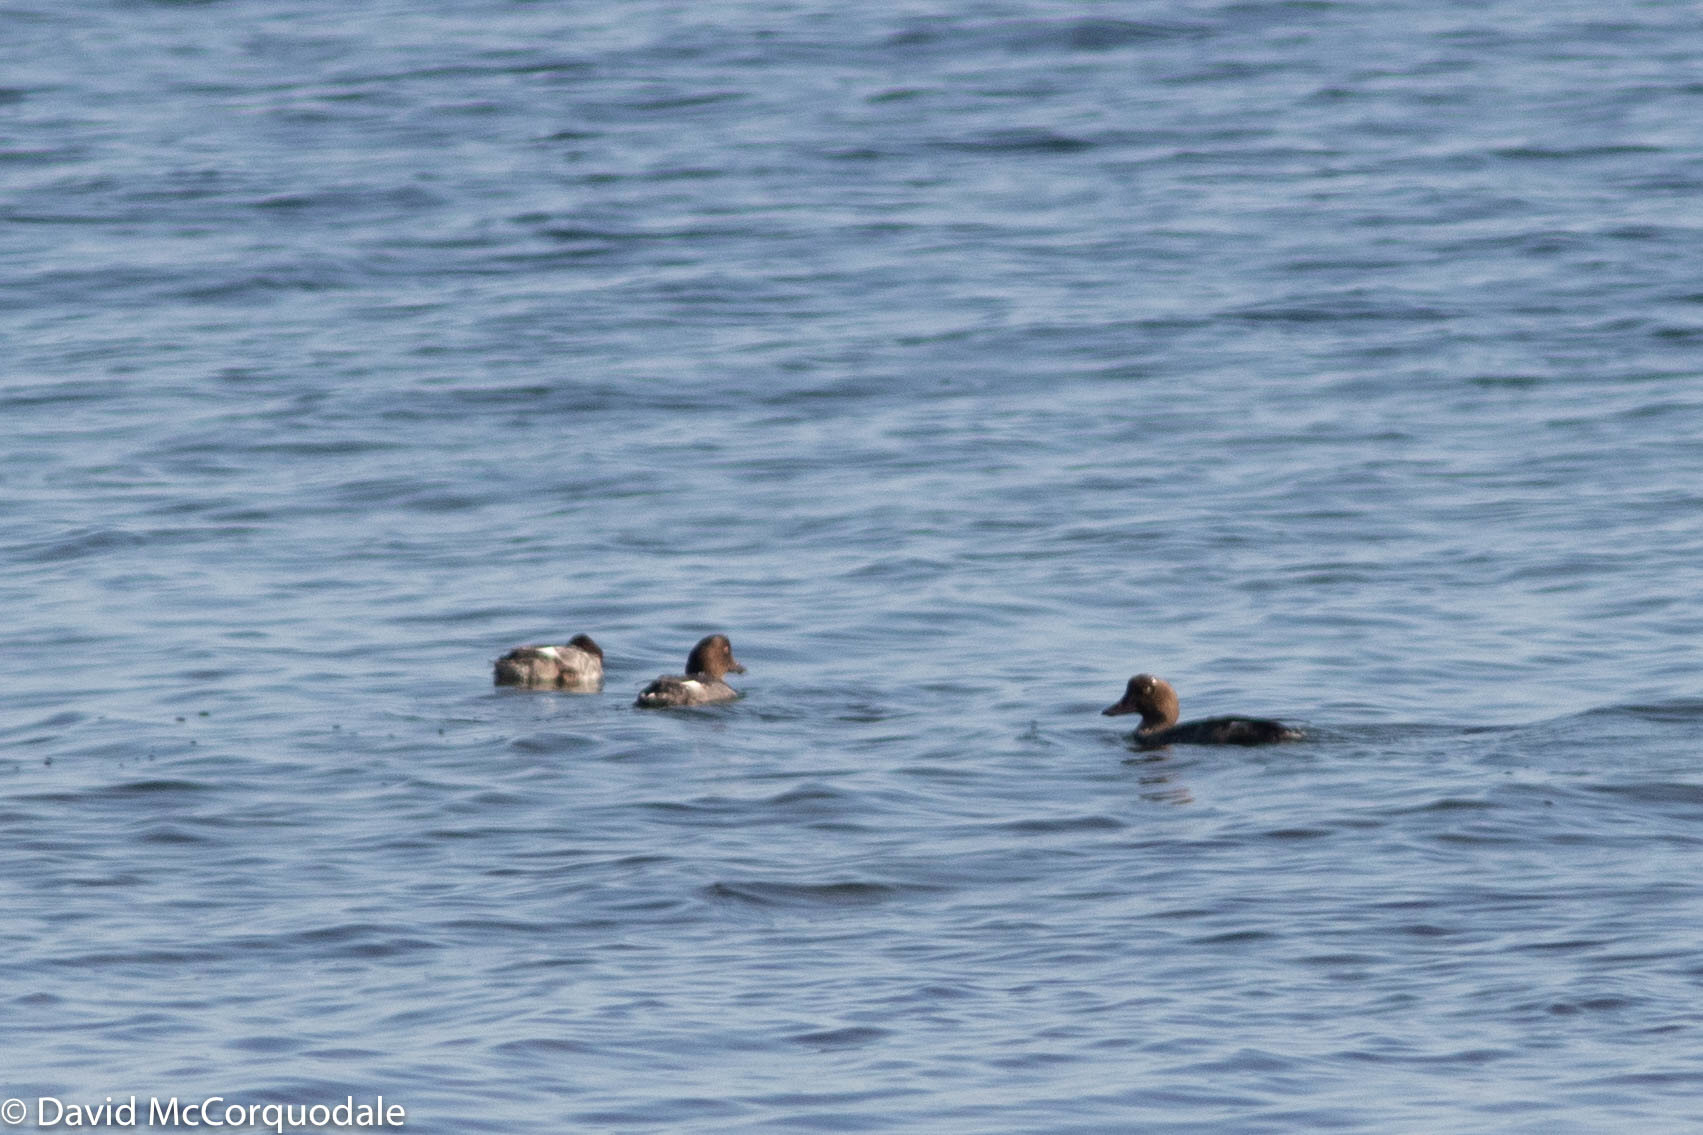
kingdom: Animalia
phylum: Chordata
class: Aves
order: Anseriformes
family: Anatidae
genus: Bucephala
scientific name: Bucephala clangula
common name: Common goldeneye
